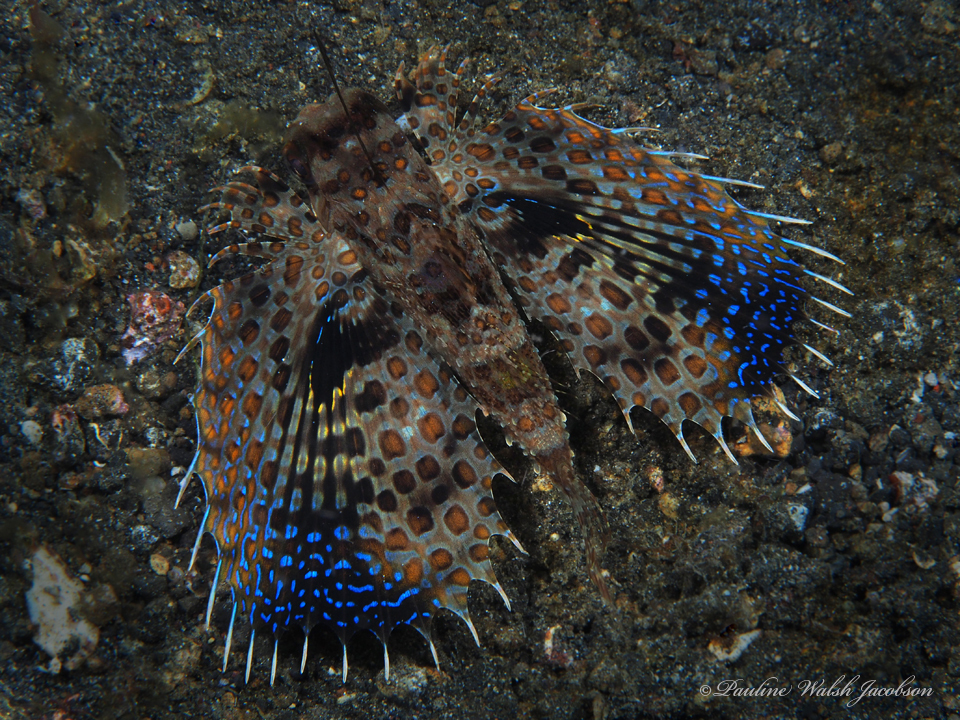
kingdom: Animalia
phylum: Chordata
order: Scorpaeniformes
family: Dactylopteridae
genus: Dactyloptena
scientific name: Dactyloptena orientalis
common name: Flying gurnard
